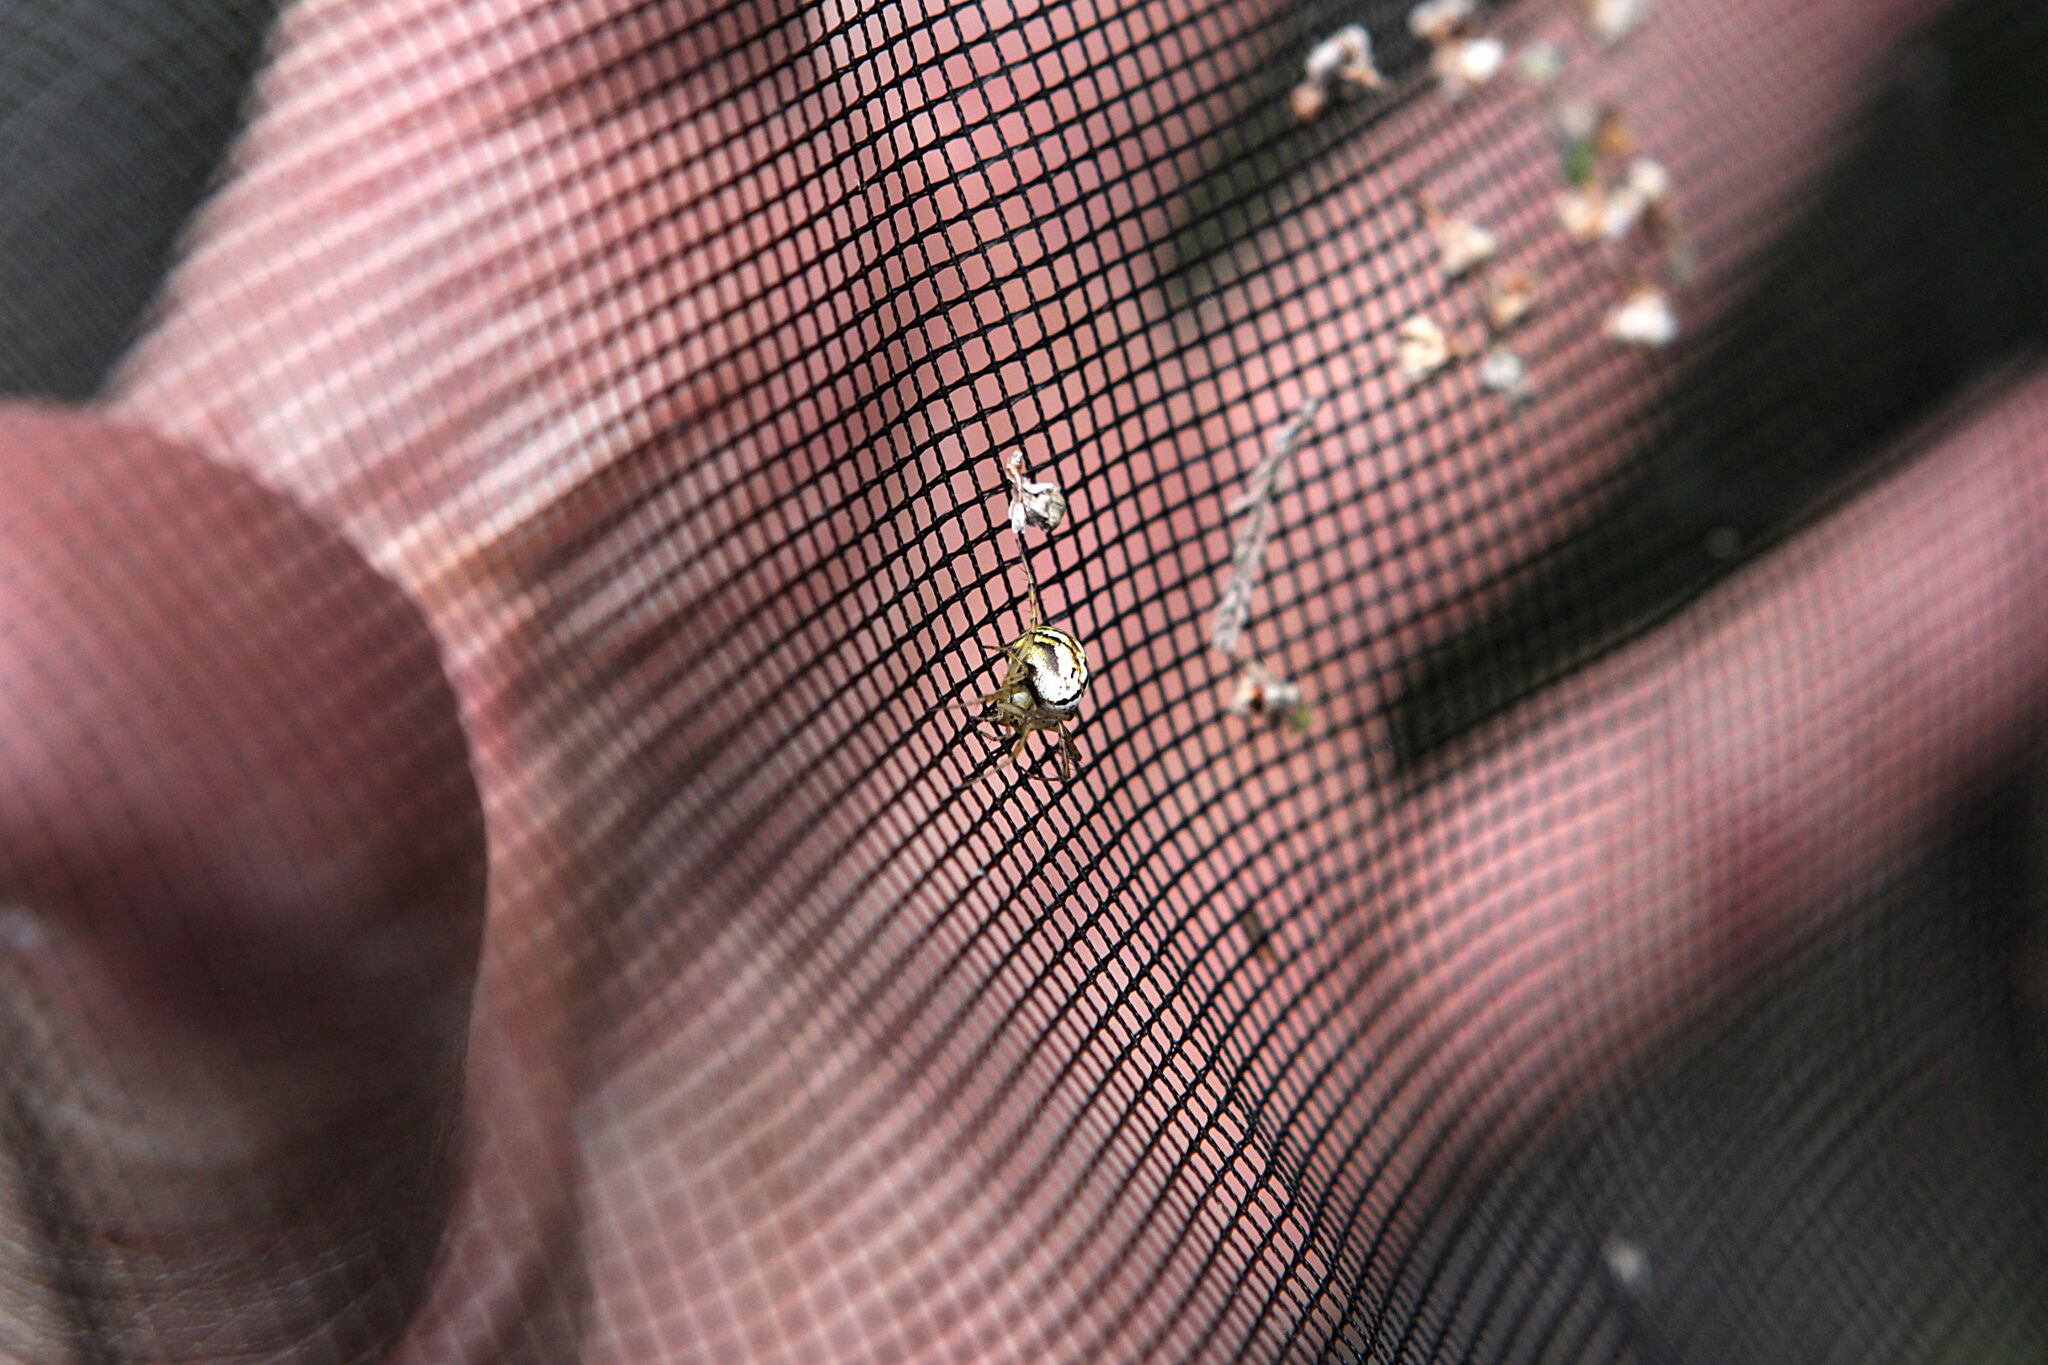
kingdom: Animalia
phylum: Arthropoda
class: Arachnida
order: Araneae
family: Araneidae
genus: Mangora
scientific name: Mangora acalypha
